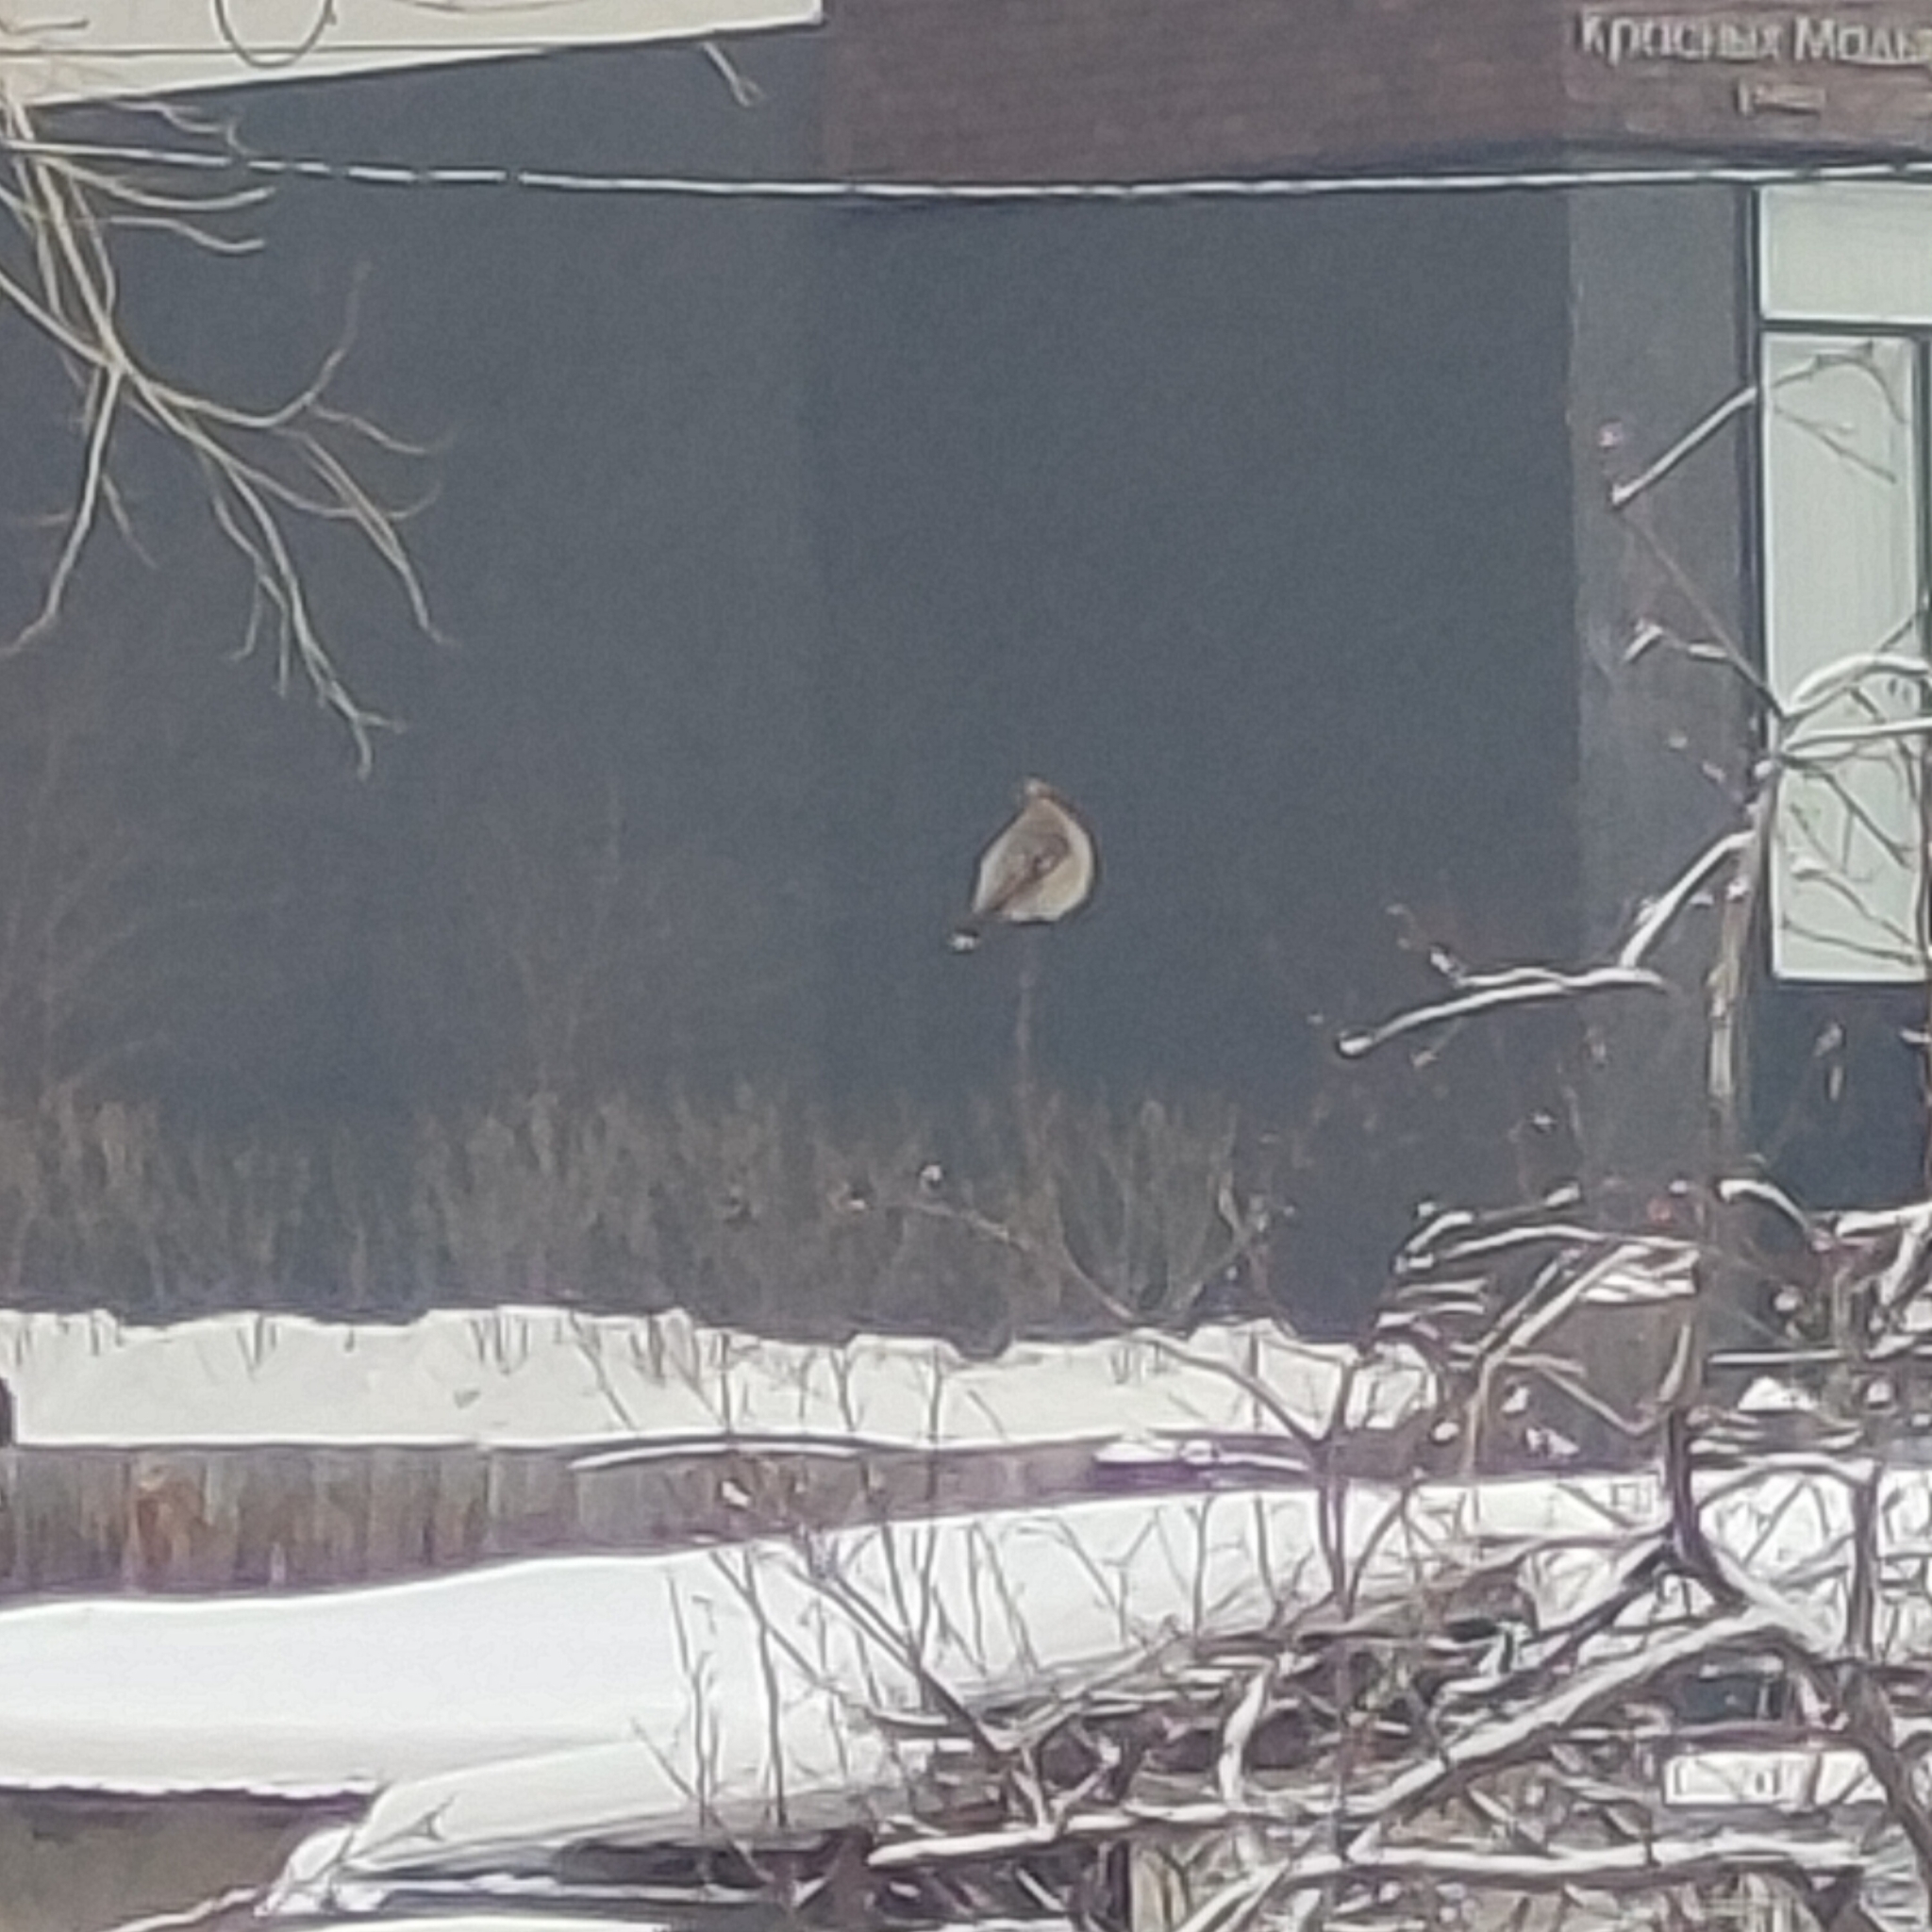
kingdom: Animalia
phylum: Chordata
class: Aves
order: Passeriformes
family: Bombycillidae
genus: Bombycilla
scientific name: Bombycilla garrulus
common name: Bohemian waxwing
